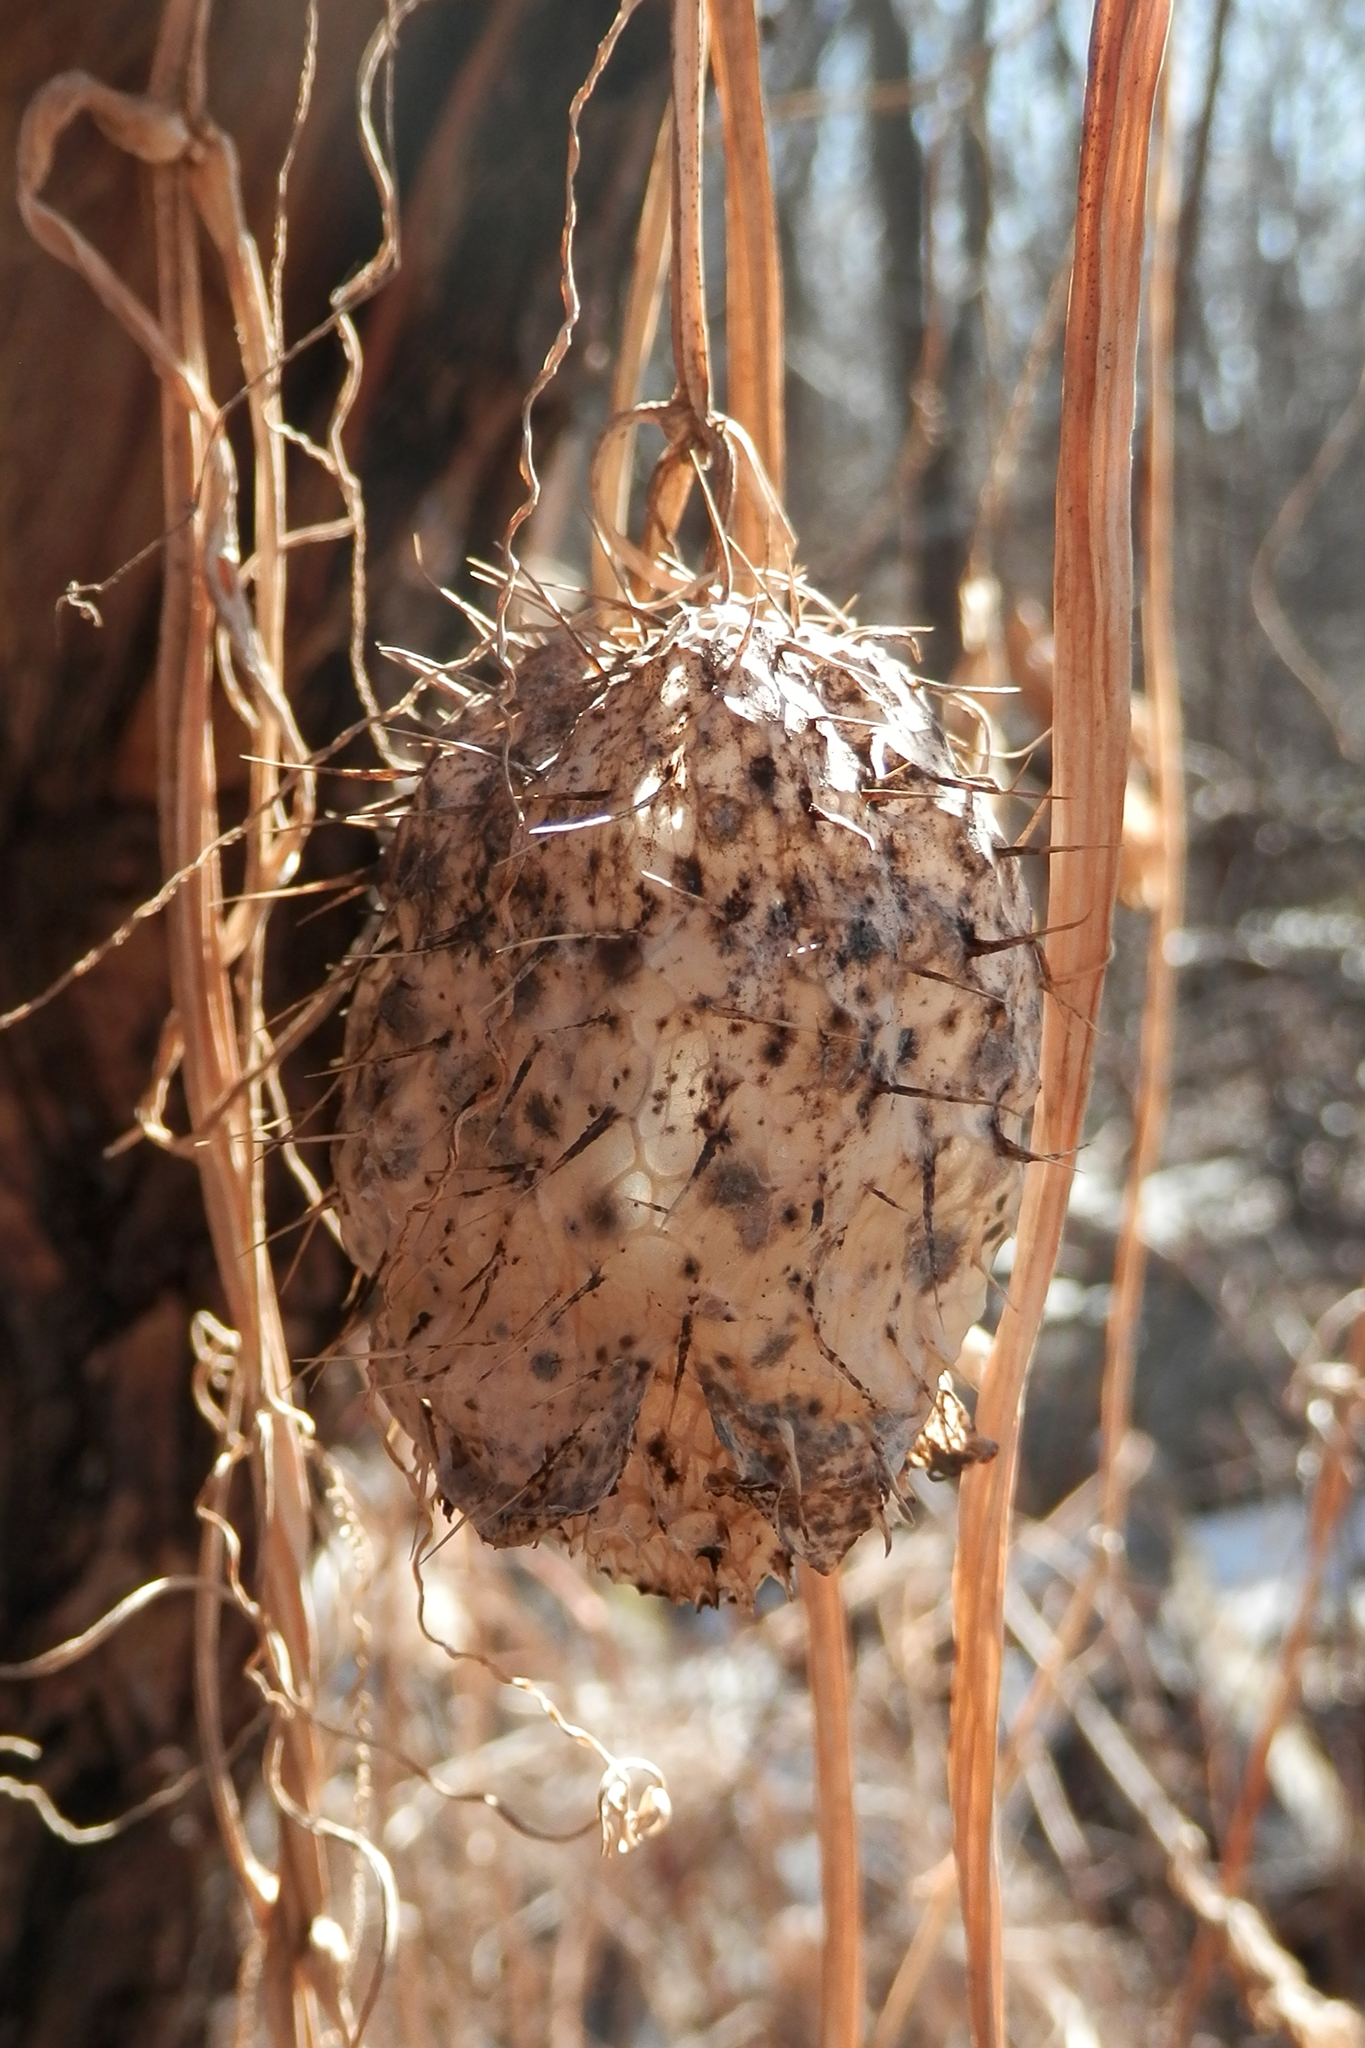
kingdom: Plantae
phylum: Tracheophyta
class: Magnoliopsida
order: Cucurbitales
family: Cucurbitaceae
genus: Echinocystis
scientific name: Echinocystis lobata
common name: Wild cucumber
